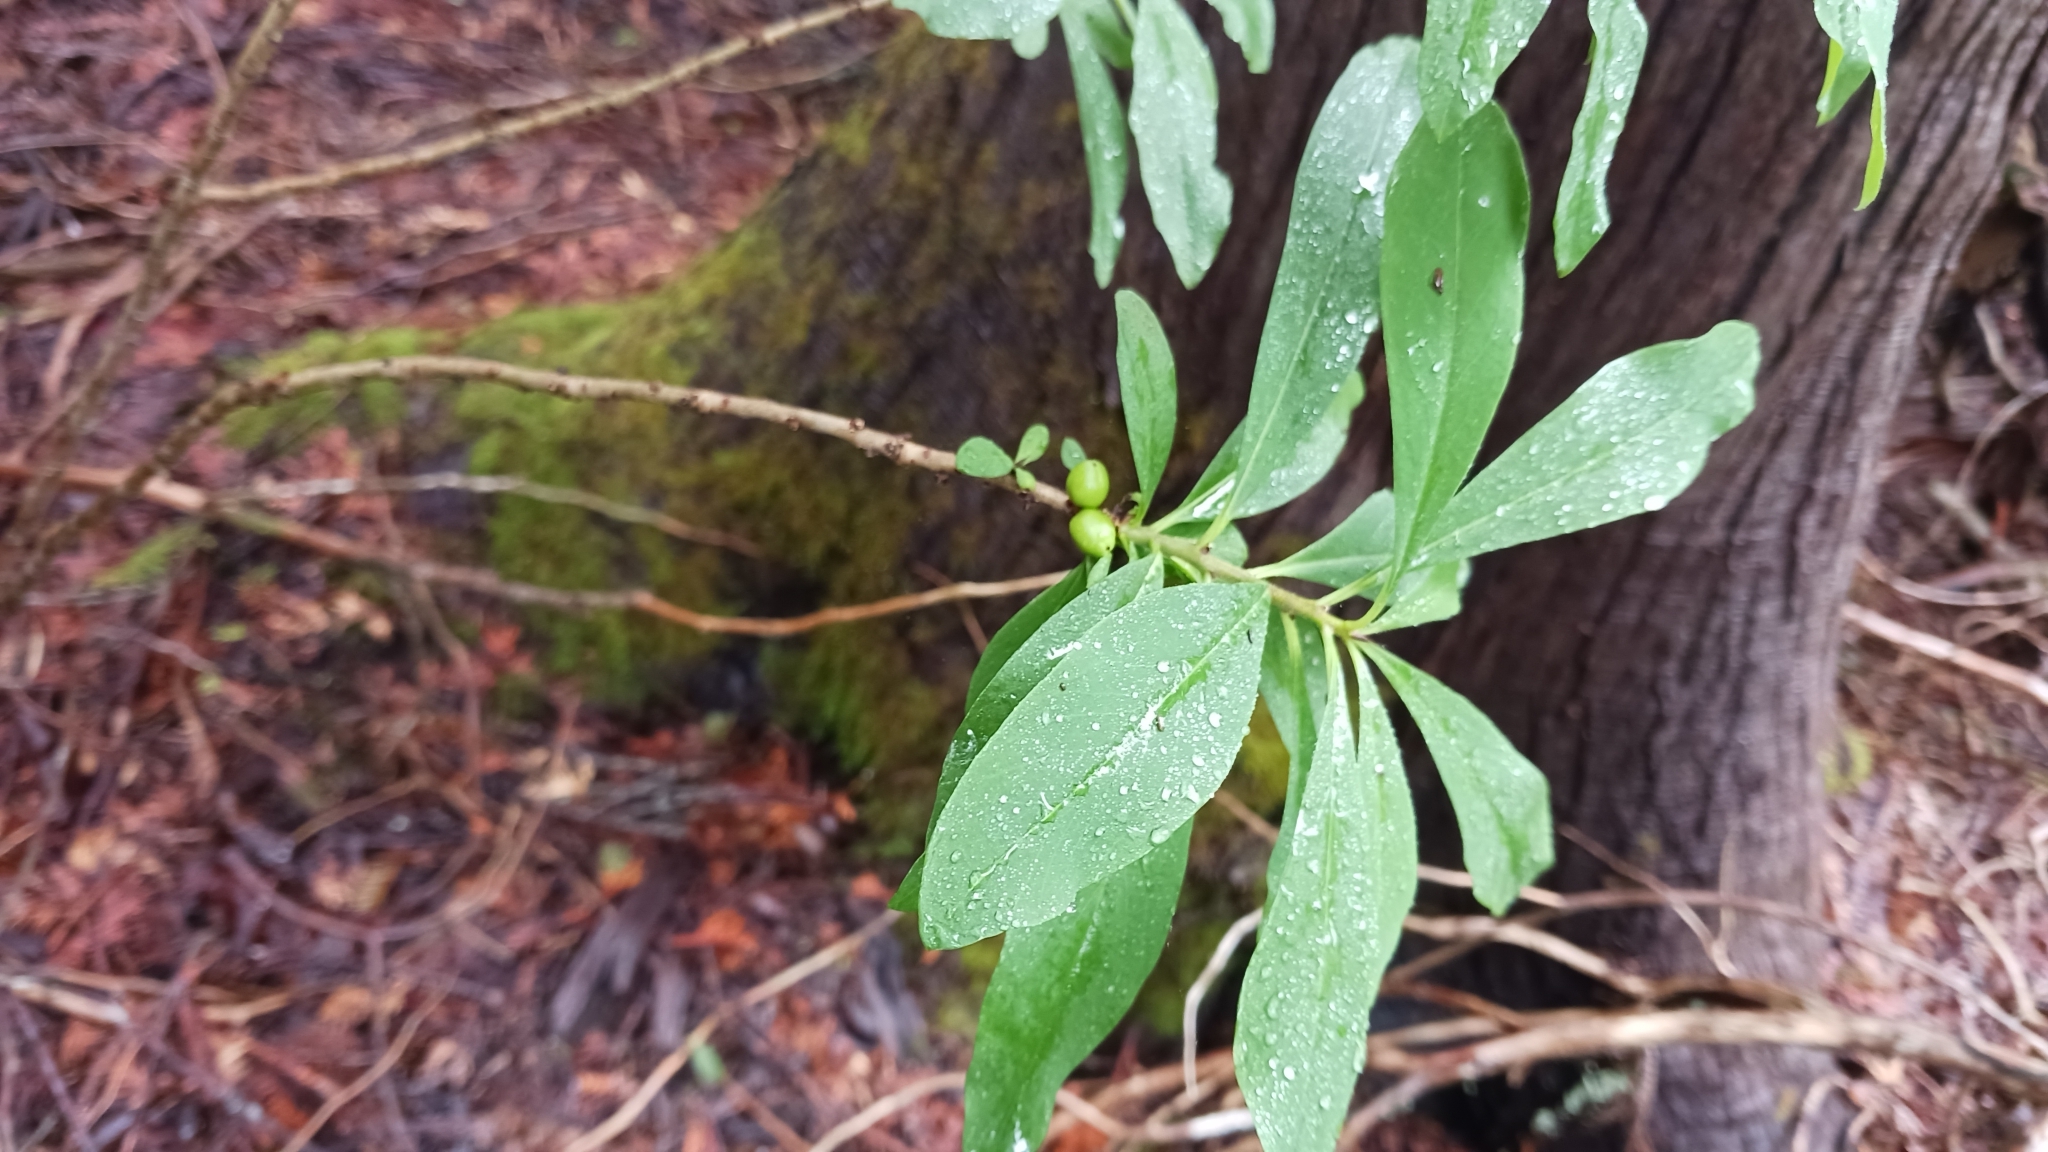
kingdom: Plantae
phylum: Tracheophyta
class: Magnoliopsida
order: Dipsacales
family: Caprifoliaceae
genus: Lonicera
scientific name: Lonicera villosa
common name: Mountain fly-honeysuckle
